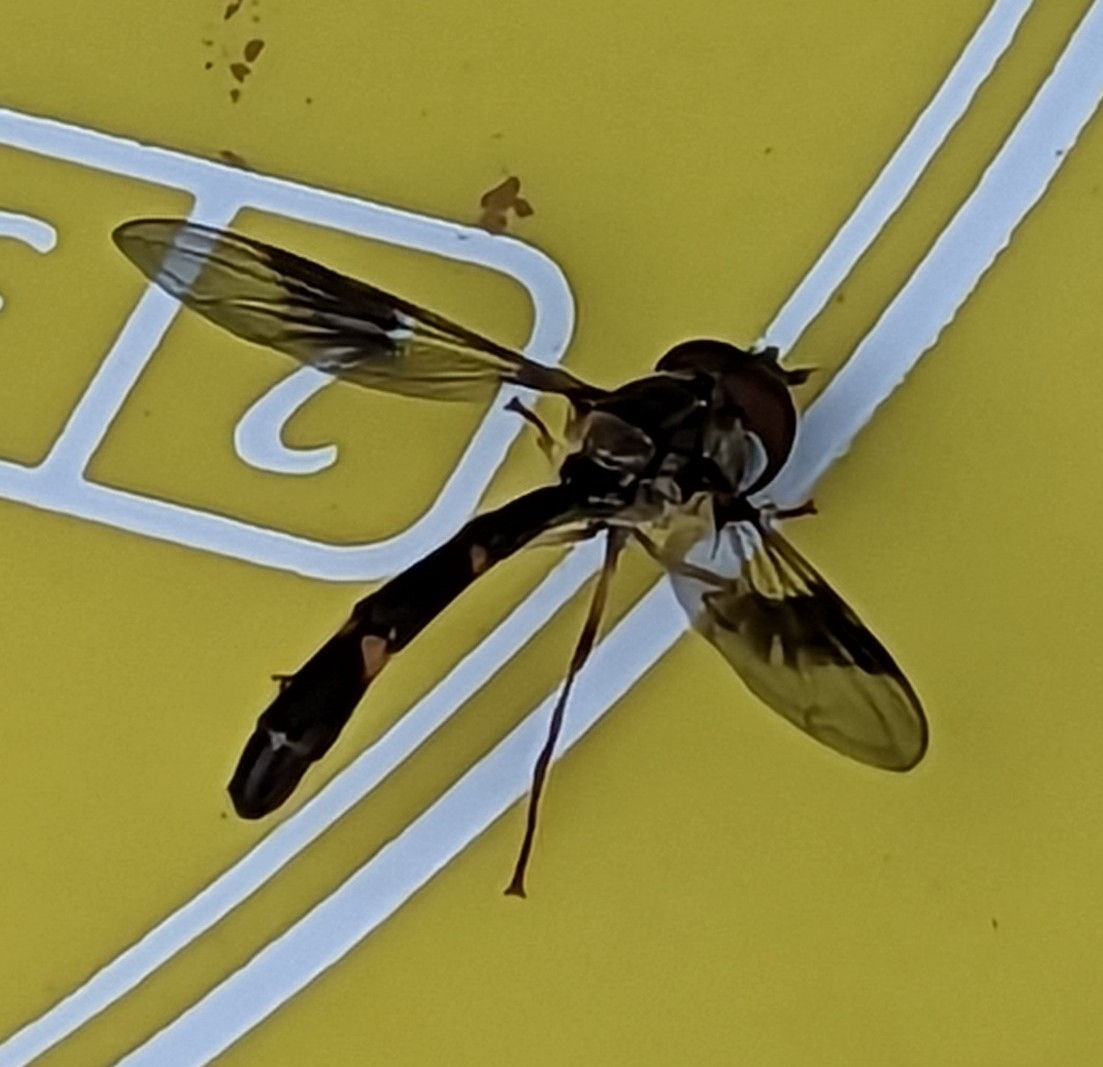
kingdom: Animalia
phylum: Arthropoda
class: Insecta
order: Diptera
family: Syrphidae
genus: Hypocritanus
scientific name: Hypocritanus fascipennis
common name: Eastern band-winged hover fly
